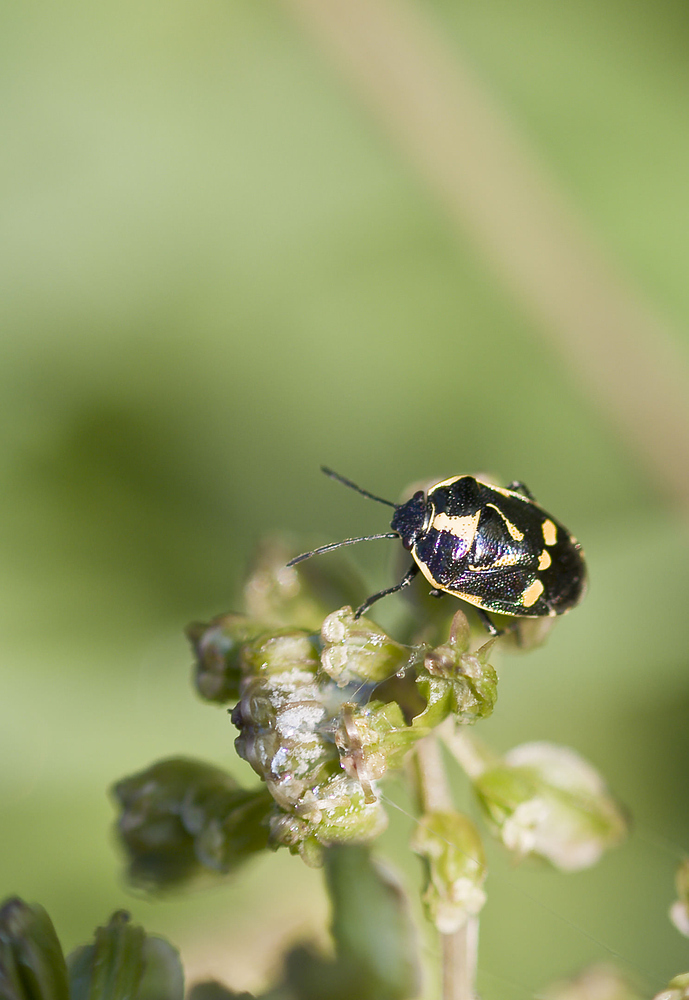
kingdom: Animalia
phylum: Arthropoda
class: Insecta
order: Hemiptera
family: Pentatomidae
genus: Eurydema
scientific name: Eurydema oleracea
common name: Cabbage bug
